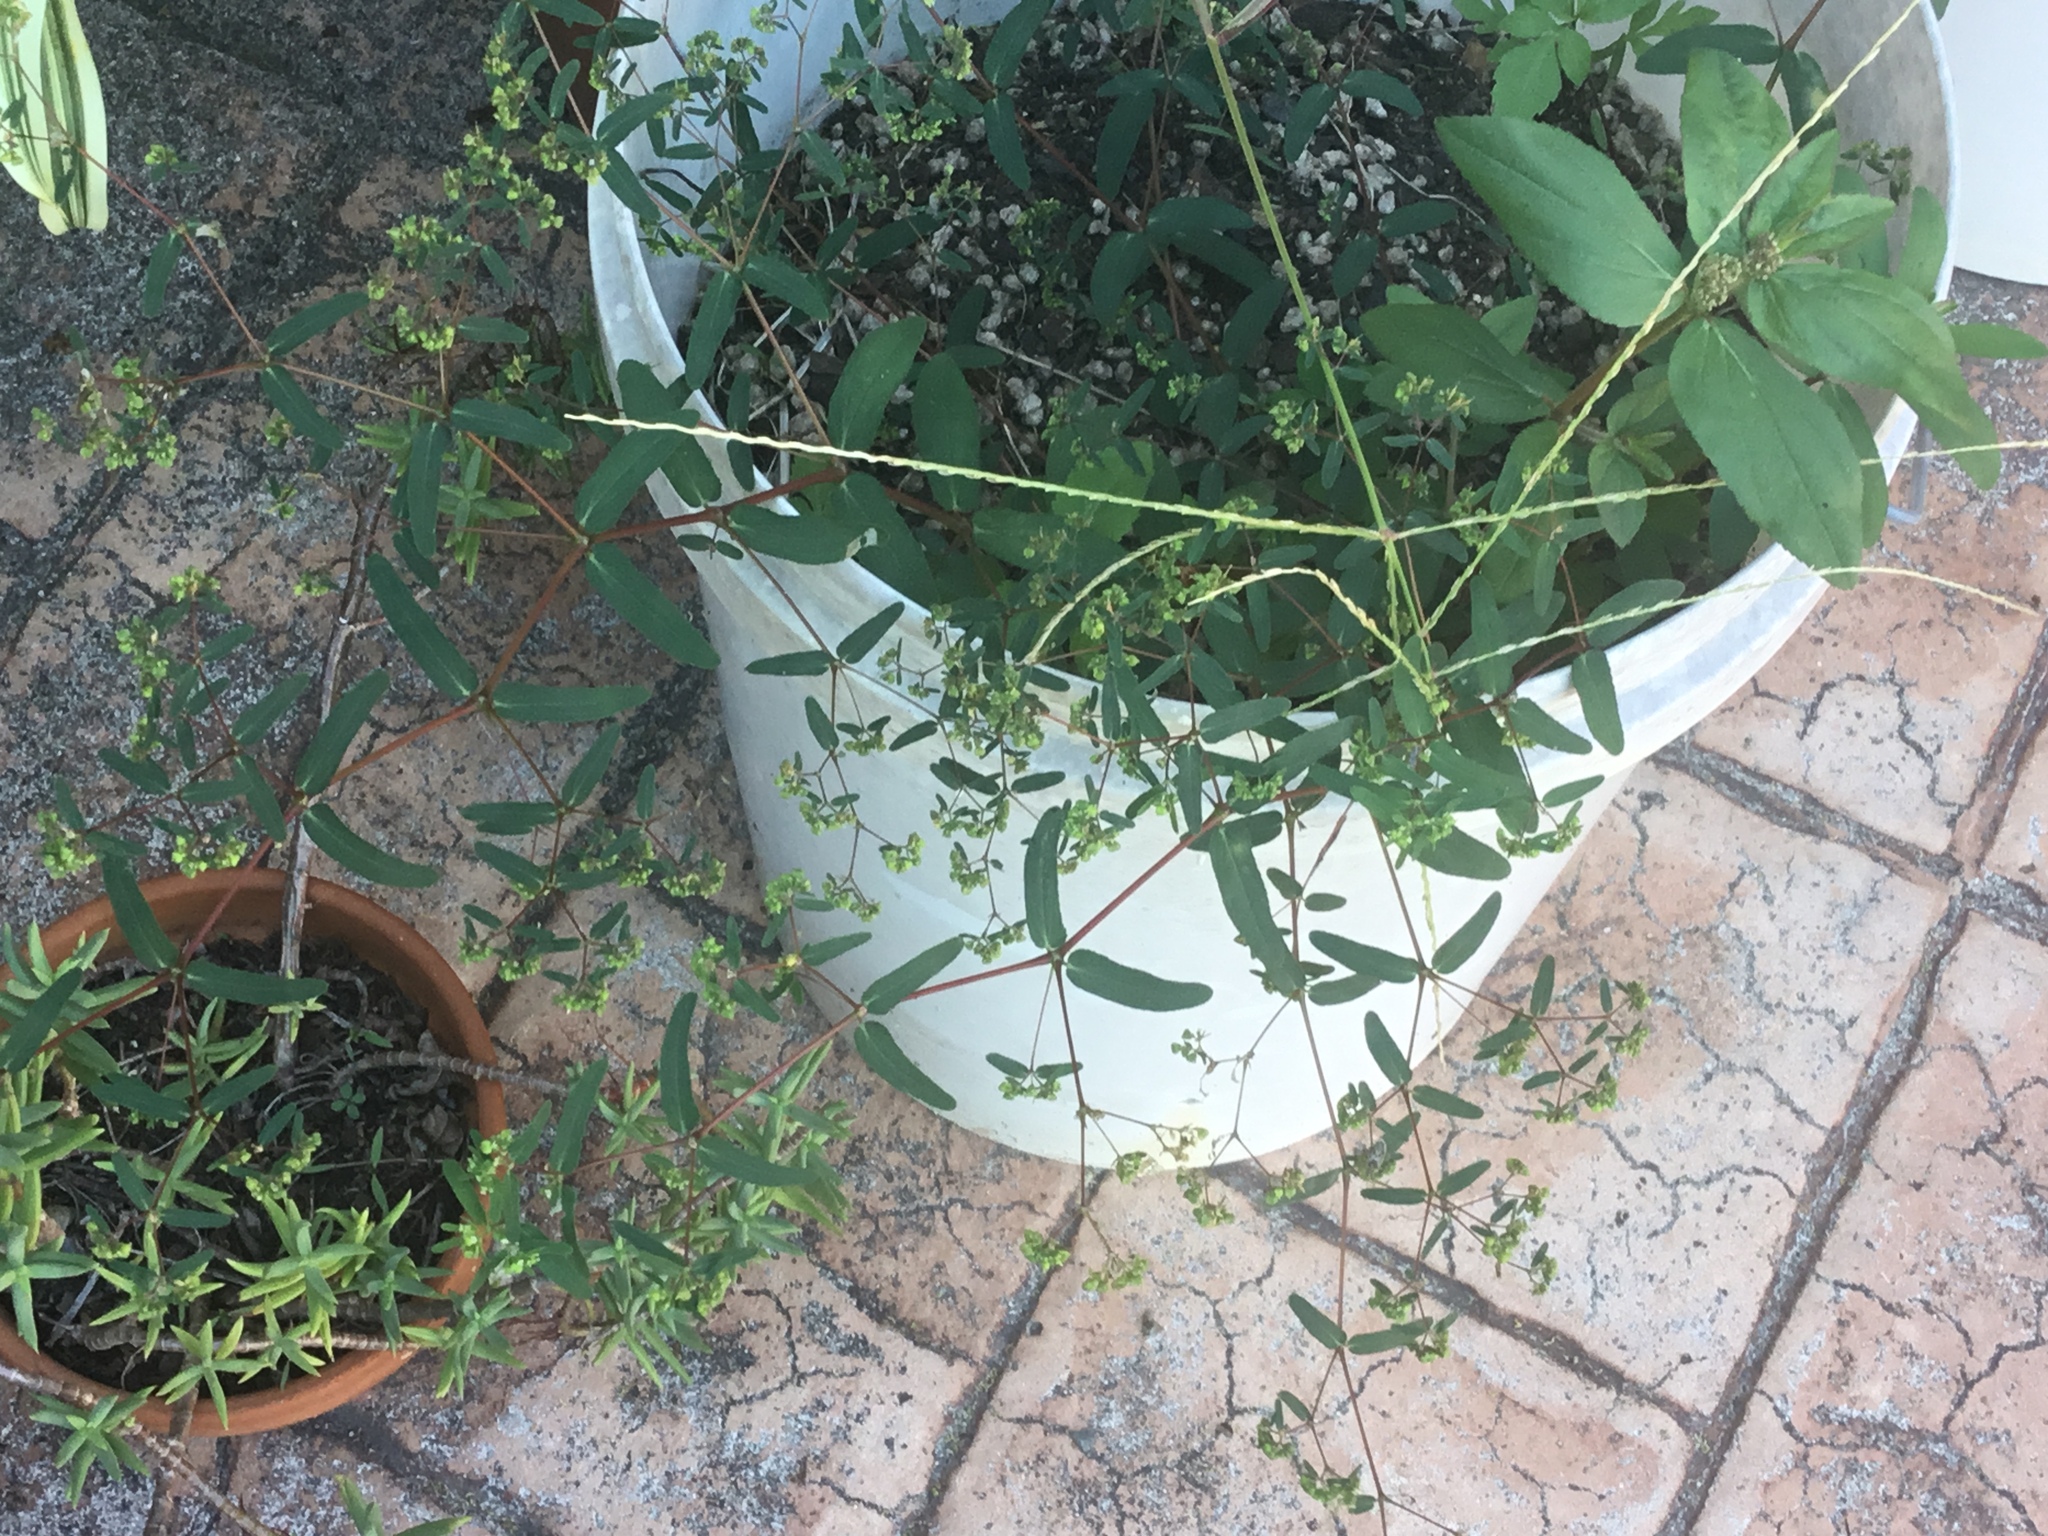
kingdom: Plantae
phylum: Tracheophyta
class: Magnoliopsida
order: Malpighiales
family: Euphorbiaceae
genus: Euphorbia
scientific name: Euphorbia hyssopifolia
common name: Hyssopleaf sandmat
